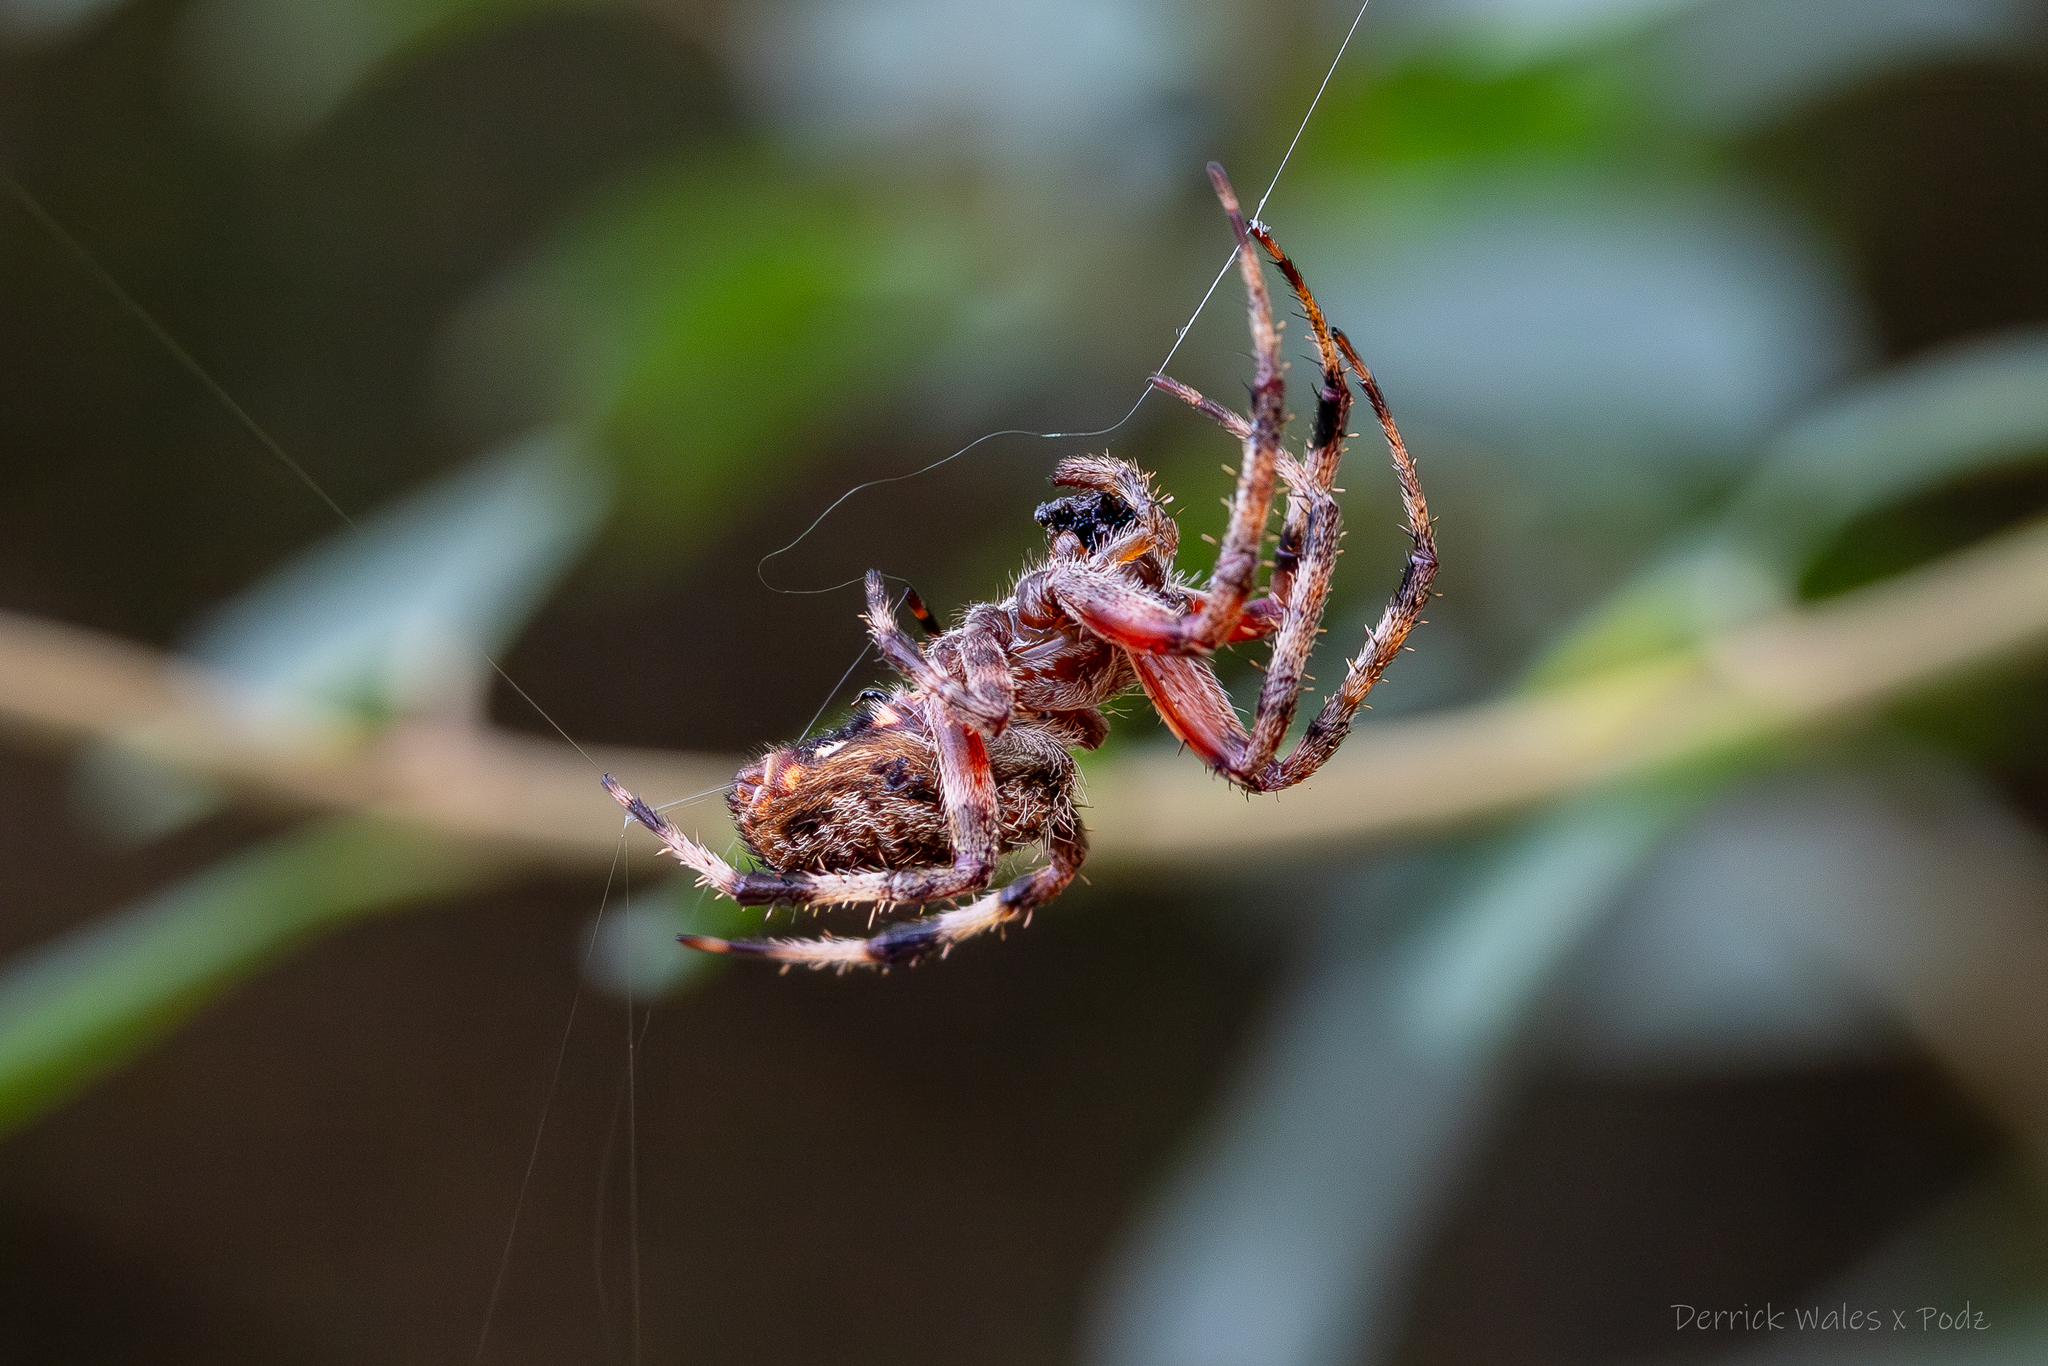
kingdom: Animalia
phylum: Arthropoda
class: Arachnida
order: Araneae
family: Araneidae
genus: Neoscona
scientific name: Neoscona crucifera
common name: Spotted orbweaver
